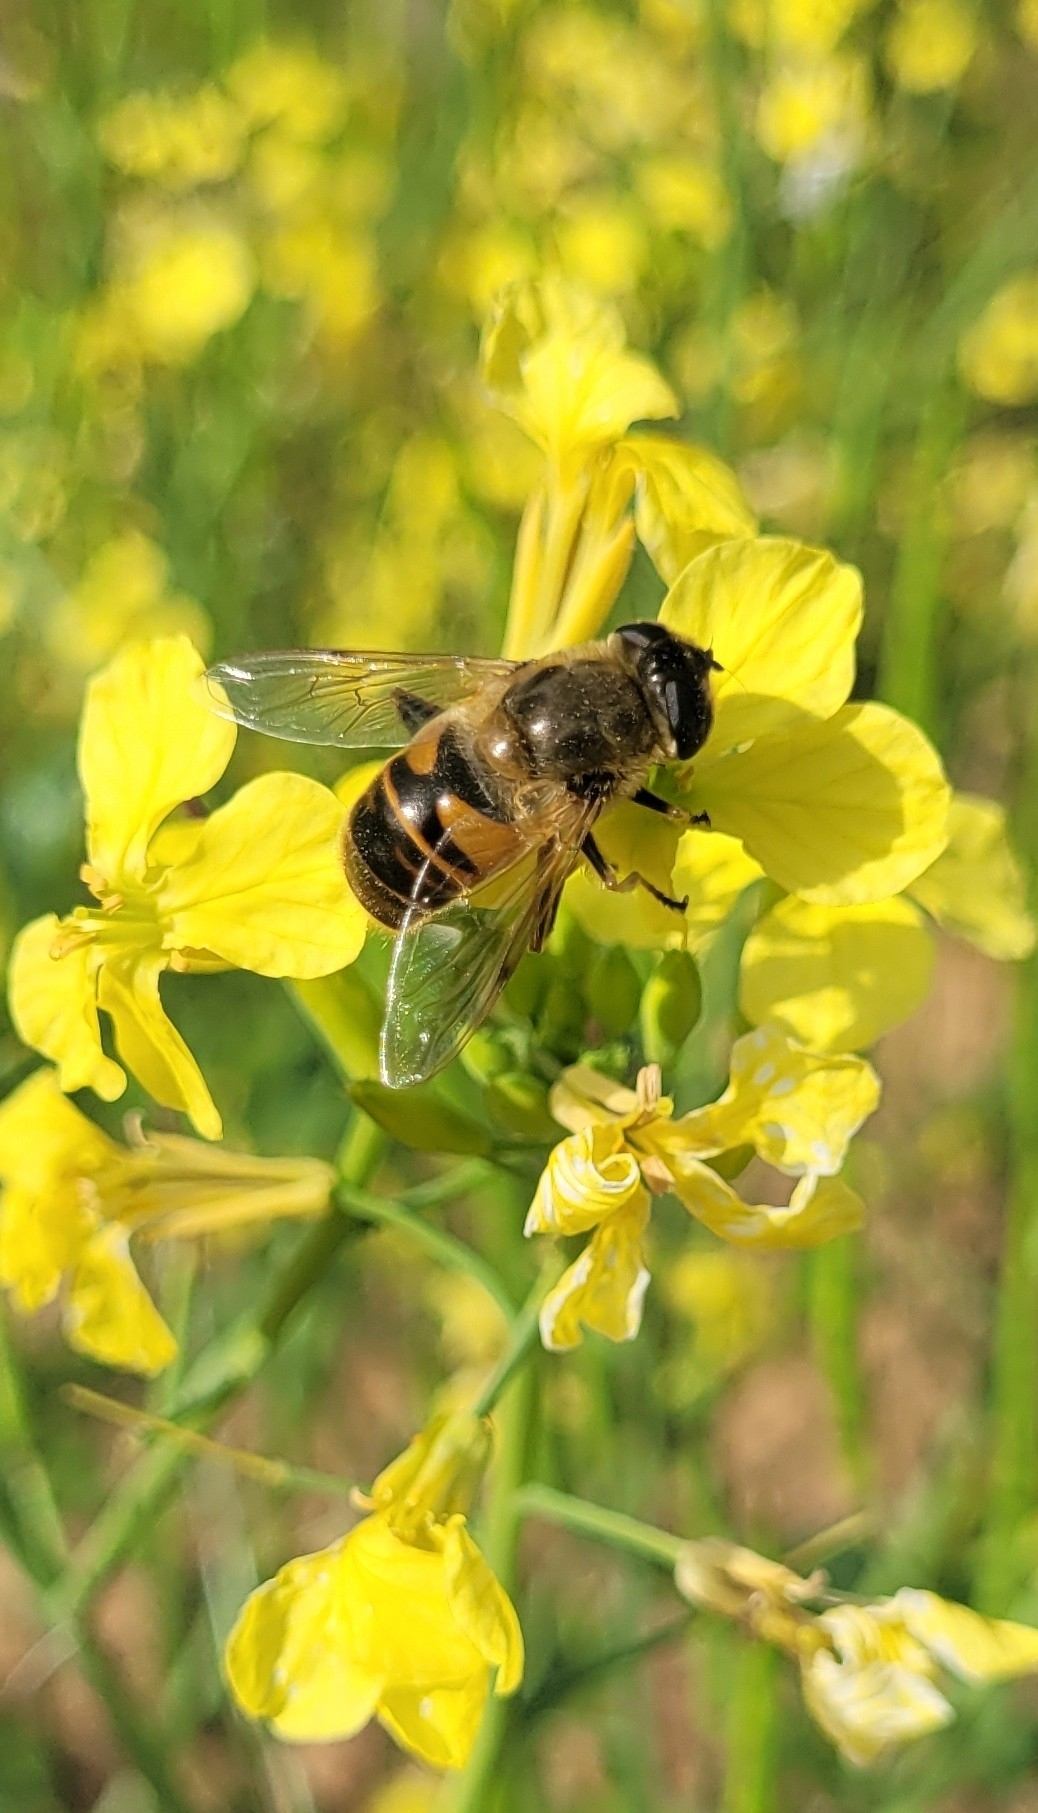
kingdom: Animalia
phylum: Arthropoda
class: Insecta
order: Diptera
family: Syrphidae
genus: Eristalis
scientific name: Eristalis tenax
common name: Drone fly
